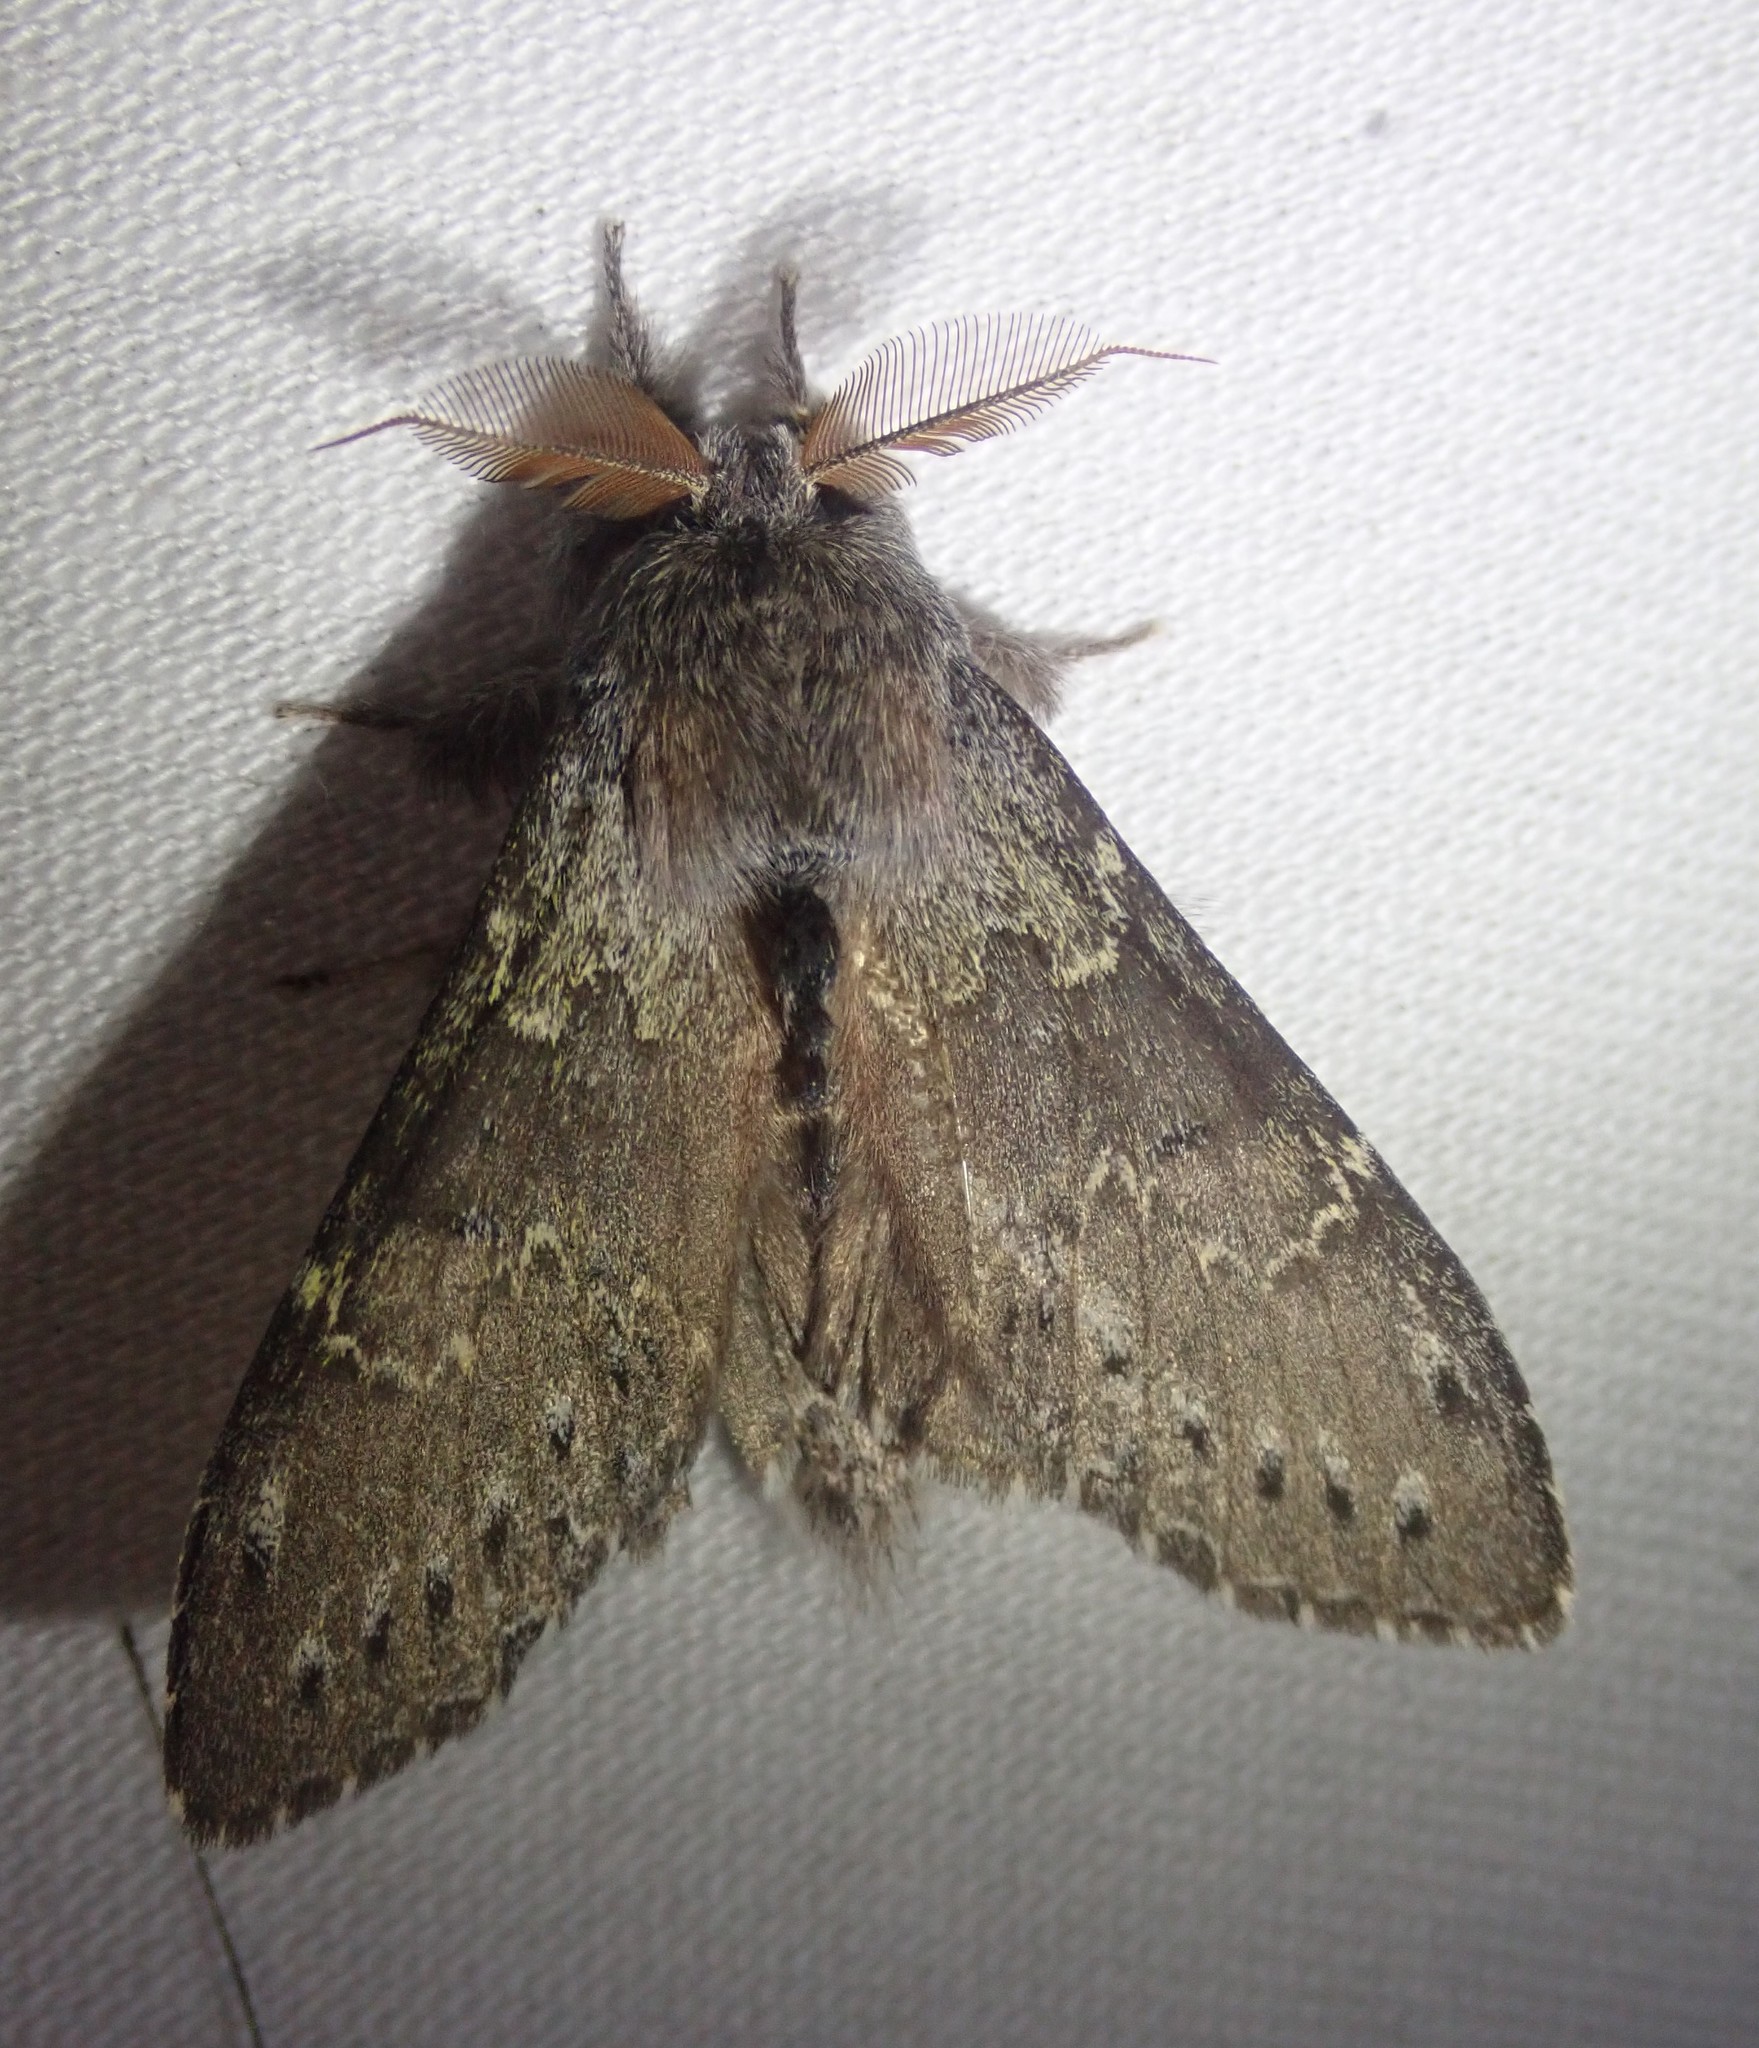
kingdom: Animalia
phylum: Arthropoda
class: Insecta
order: Lepidoptera
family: Notodontidae
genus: Stauropus
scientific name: Stauropus fagi
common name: Lobster moth
